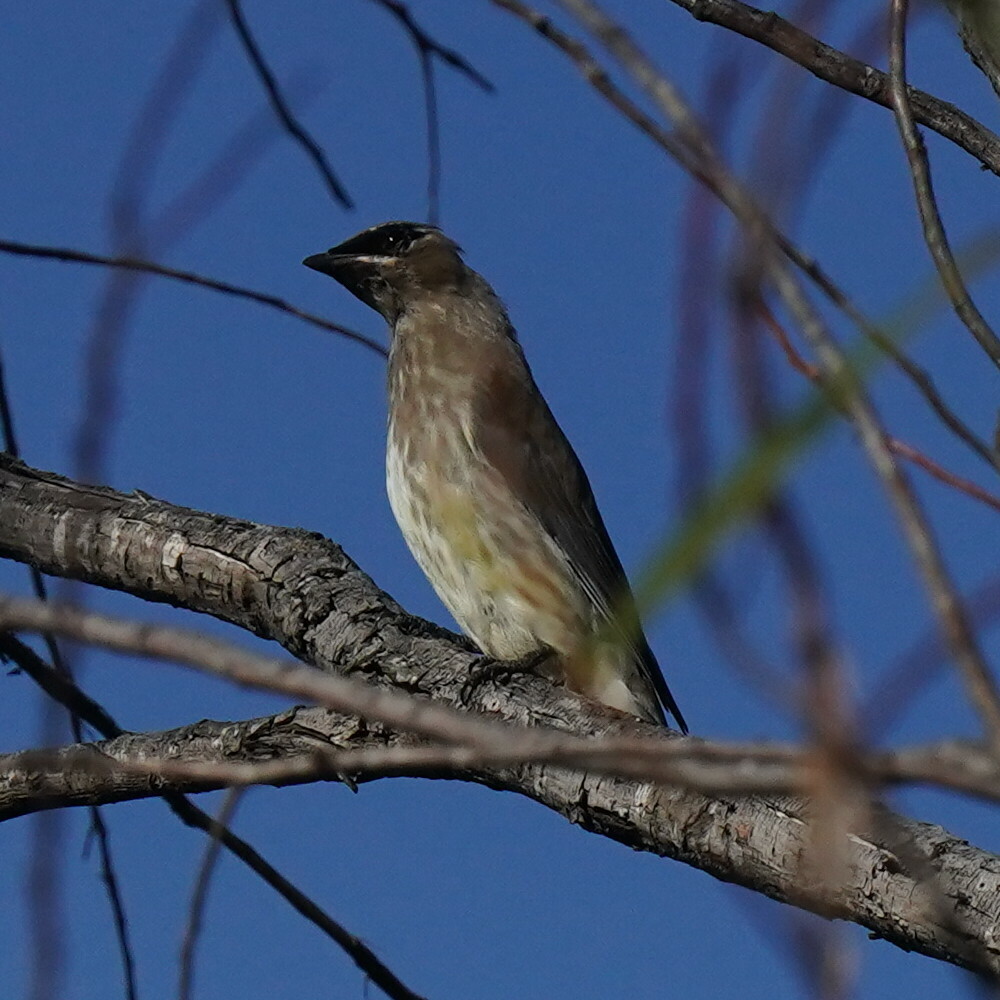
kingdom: Animalia
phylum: Chordata
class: Aves
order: Passeriformes
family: Bombycillidae
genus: Bombycilla
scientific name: Bombycilla cedrorum
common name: Cedar waxwing
